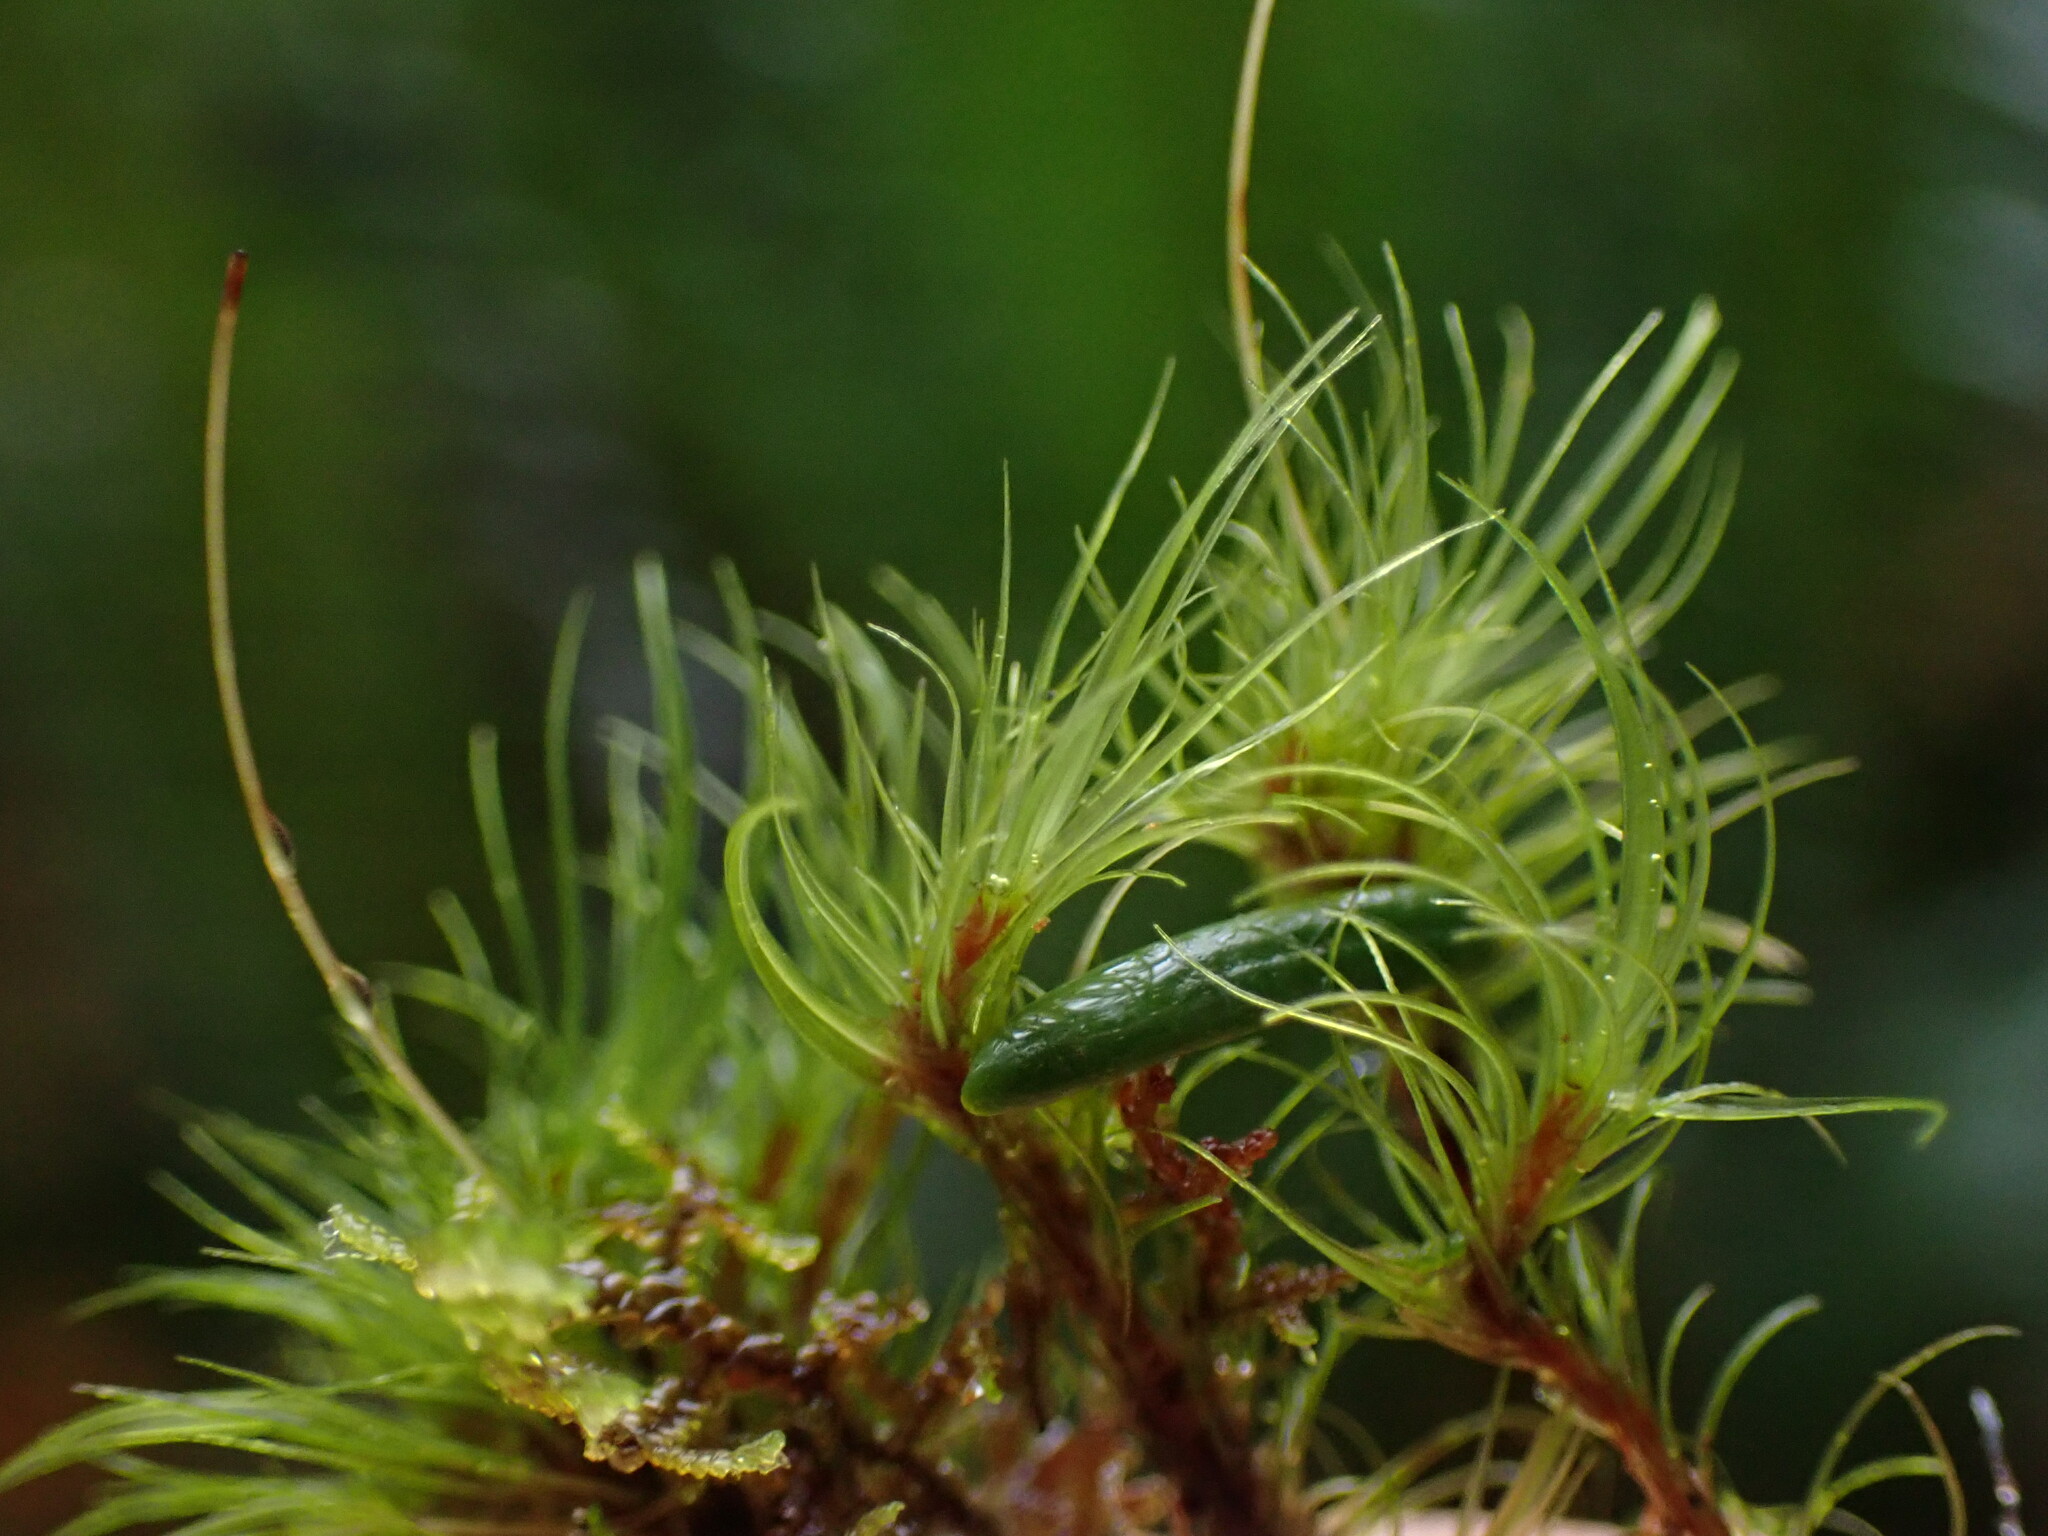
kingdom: Plantae
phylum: Bryophyta
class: Bryopsida
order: Dicranales
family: Dicranaceae
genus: Dicranum
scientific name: Dicranum fuscescens
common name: Curly heron's-bill moss
